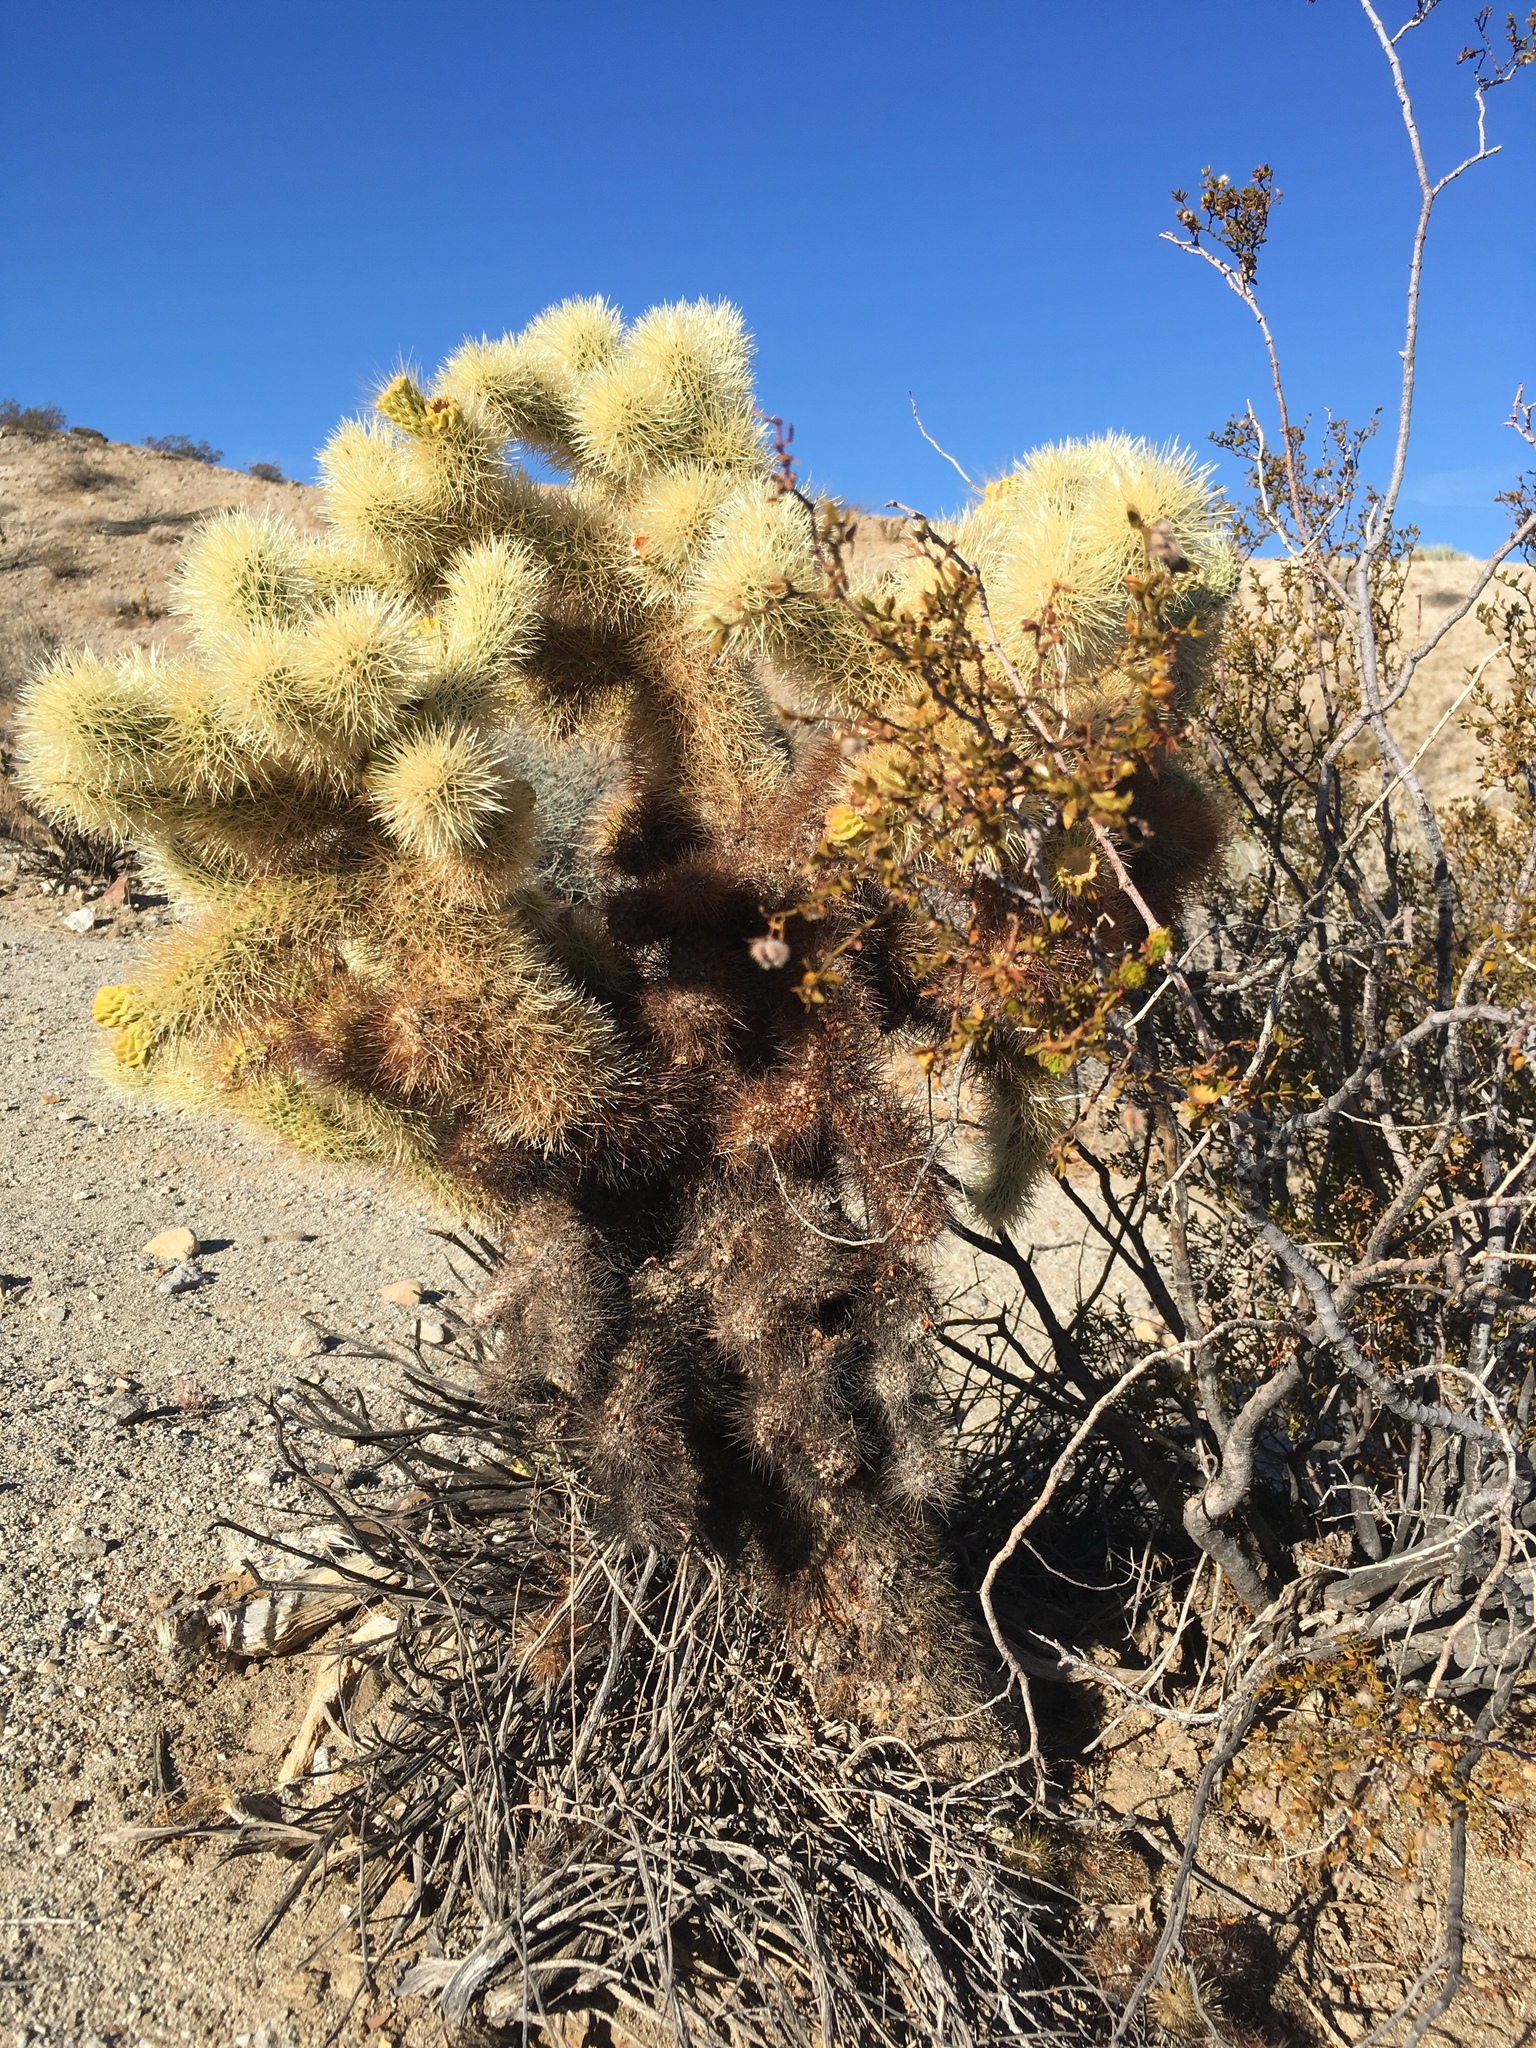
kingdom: Plantae
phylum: Tracheophyta
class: Magnoliopsida
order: Caryophyllales
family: Cactaceae
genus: Cylindropuntia
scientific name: Cylindropuntia fosbergii
